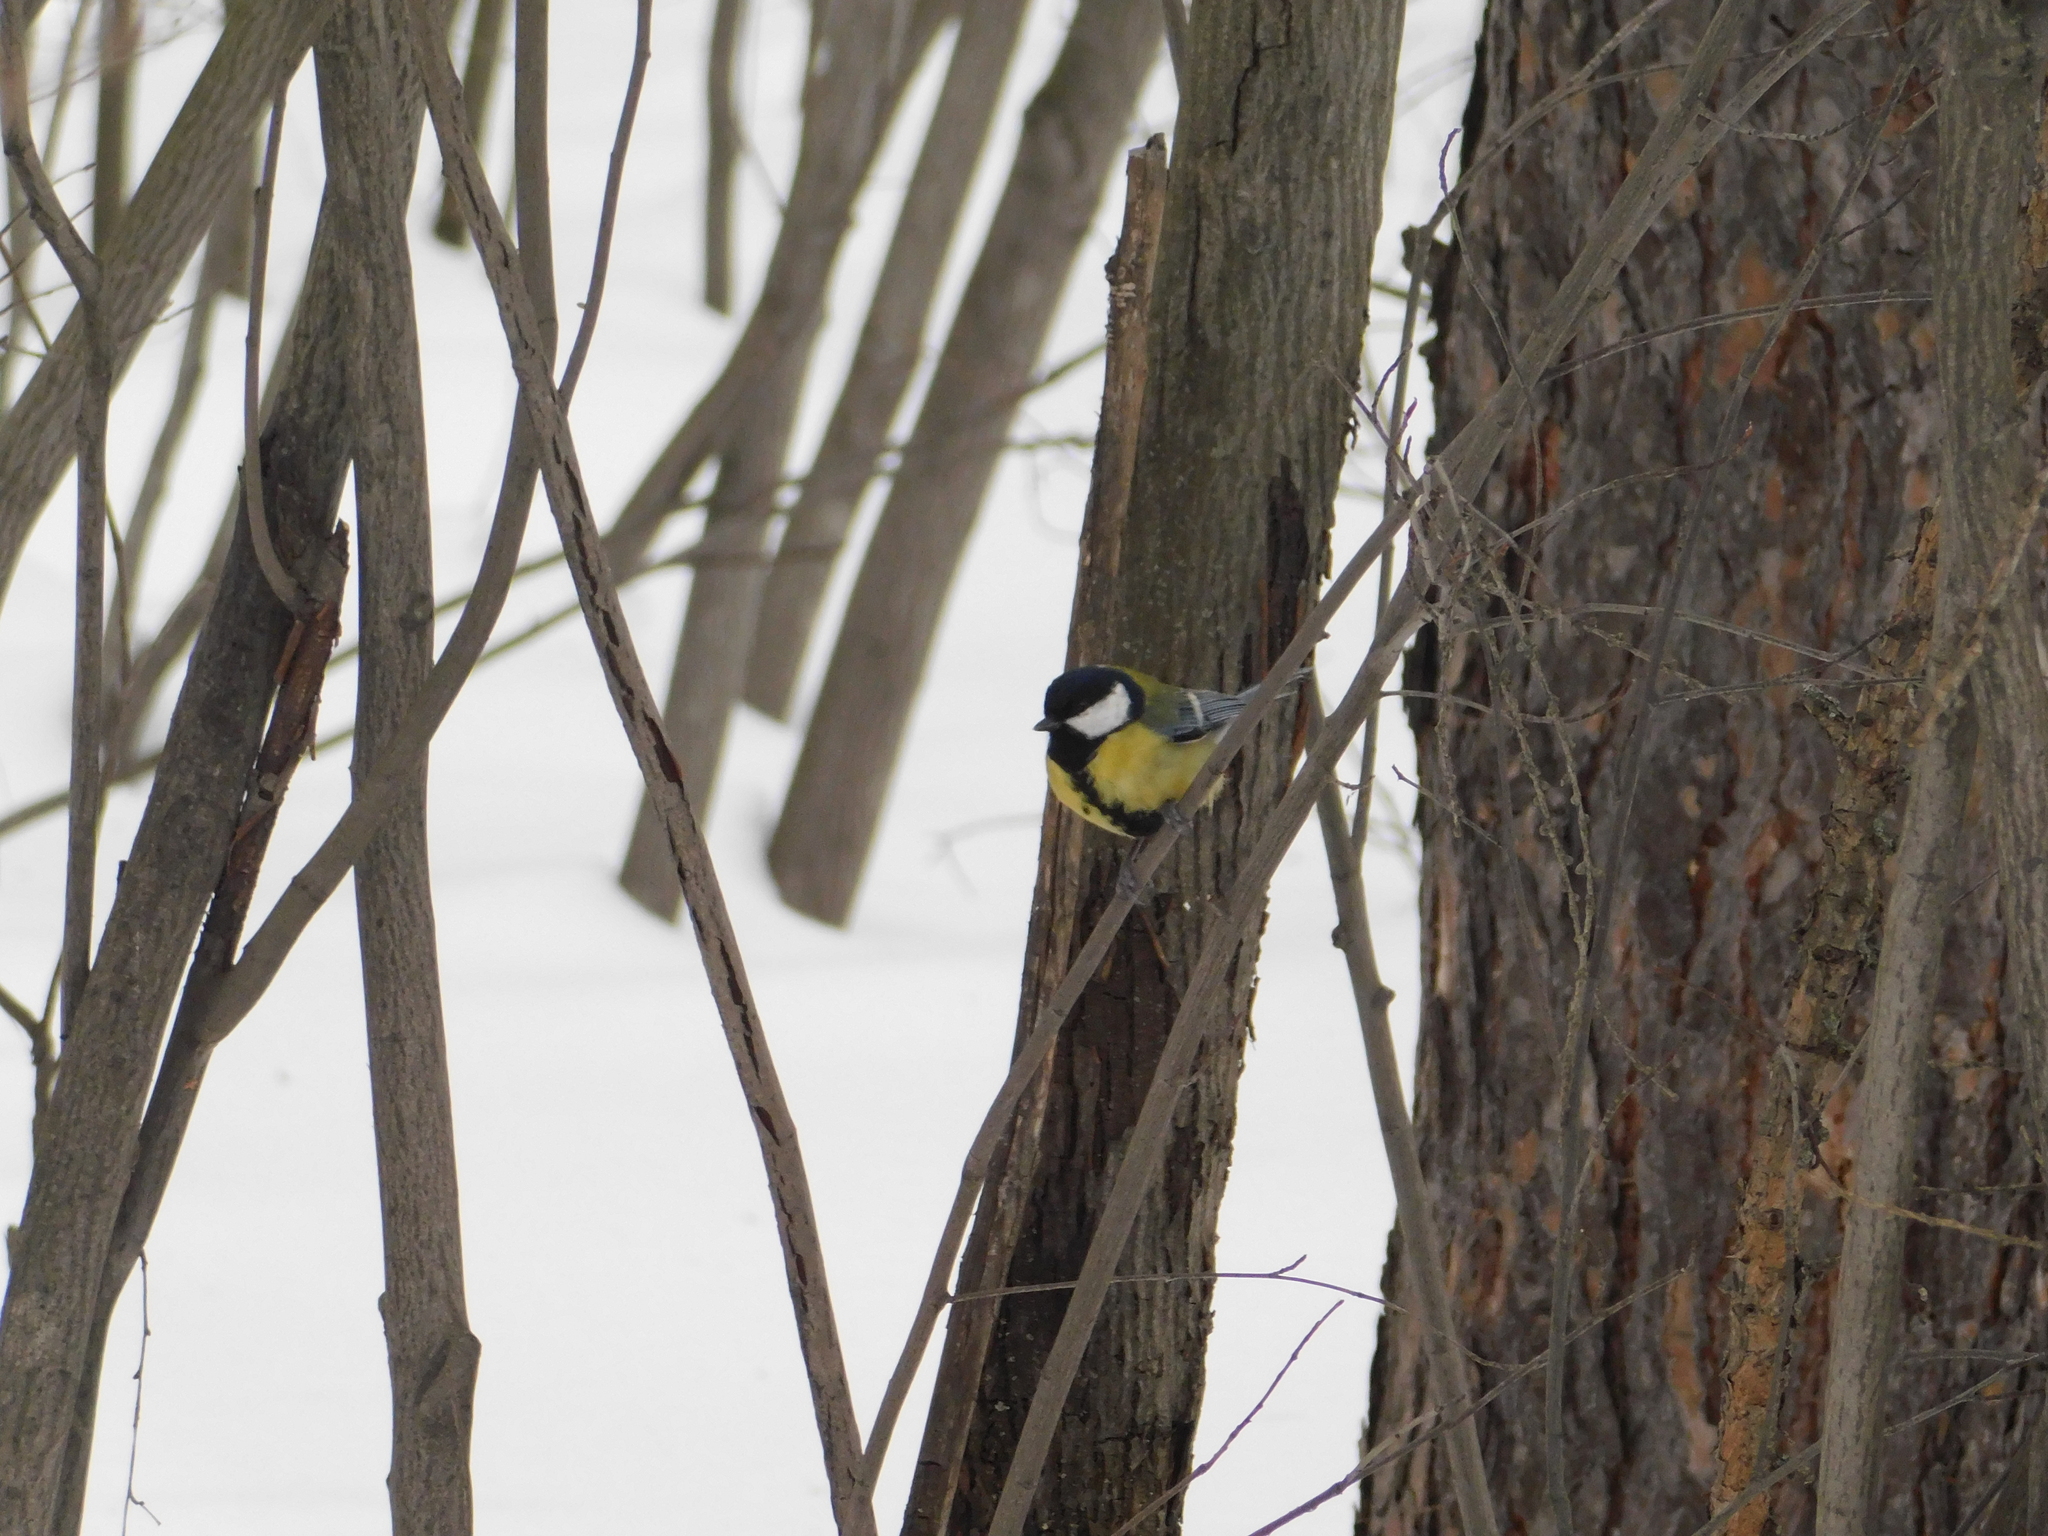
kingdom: Animalia
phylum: Chordata
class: Aves
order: Passeriformes
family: Paridae
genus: Parus
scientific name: Parus major
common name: Great tit
